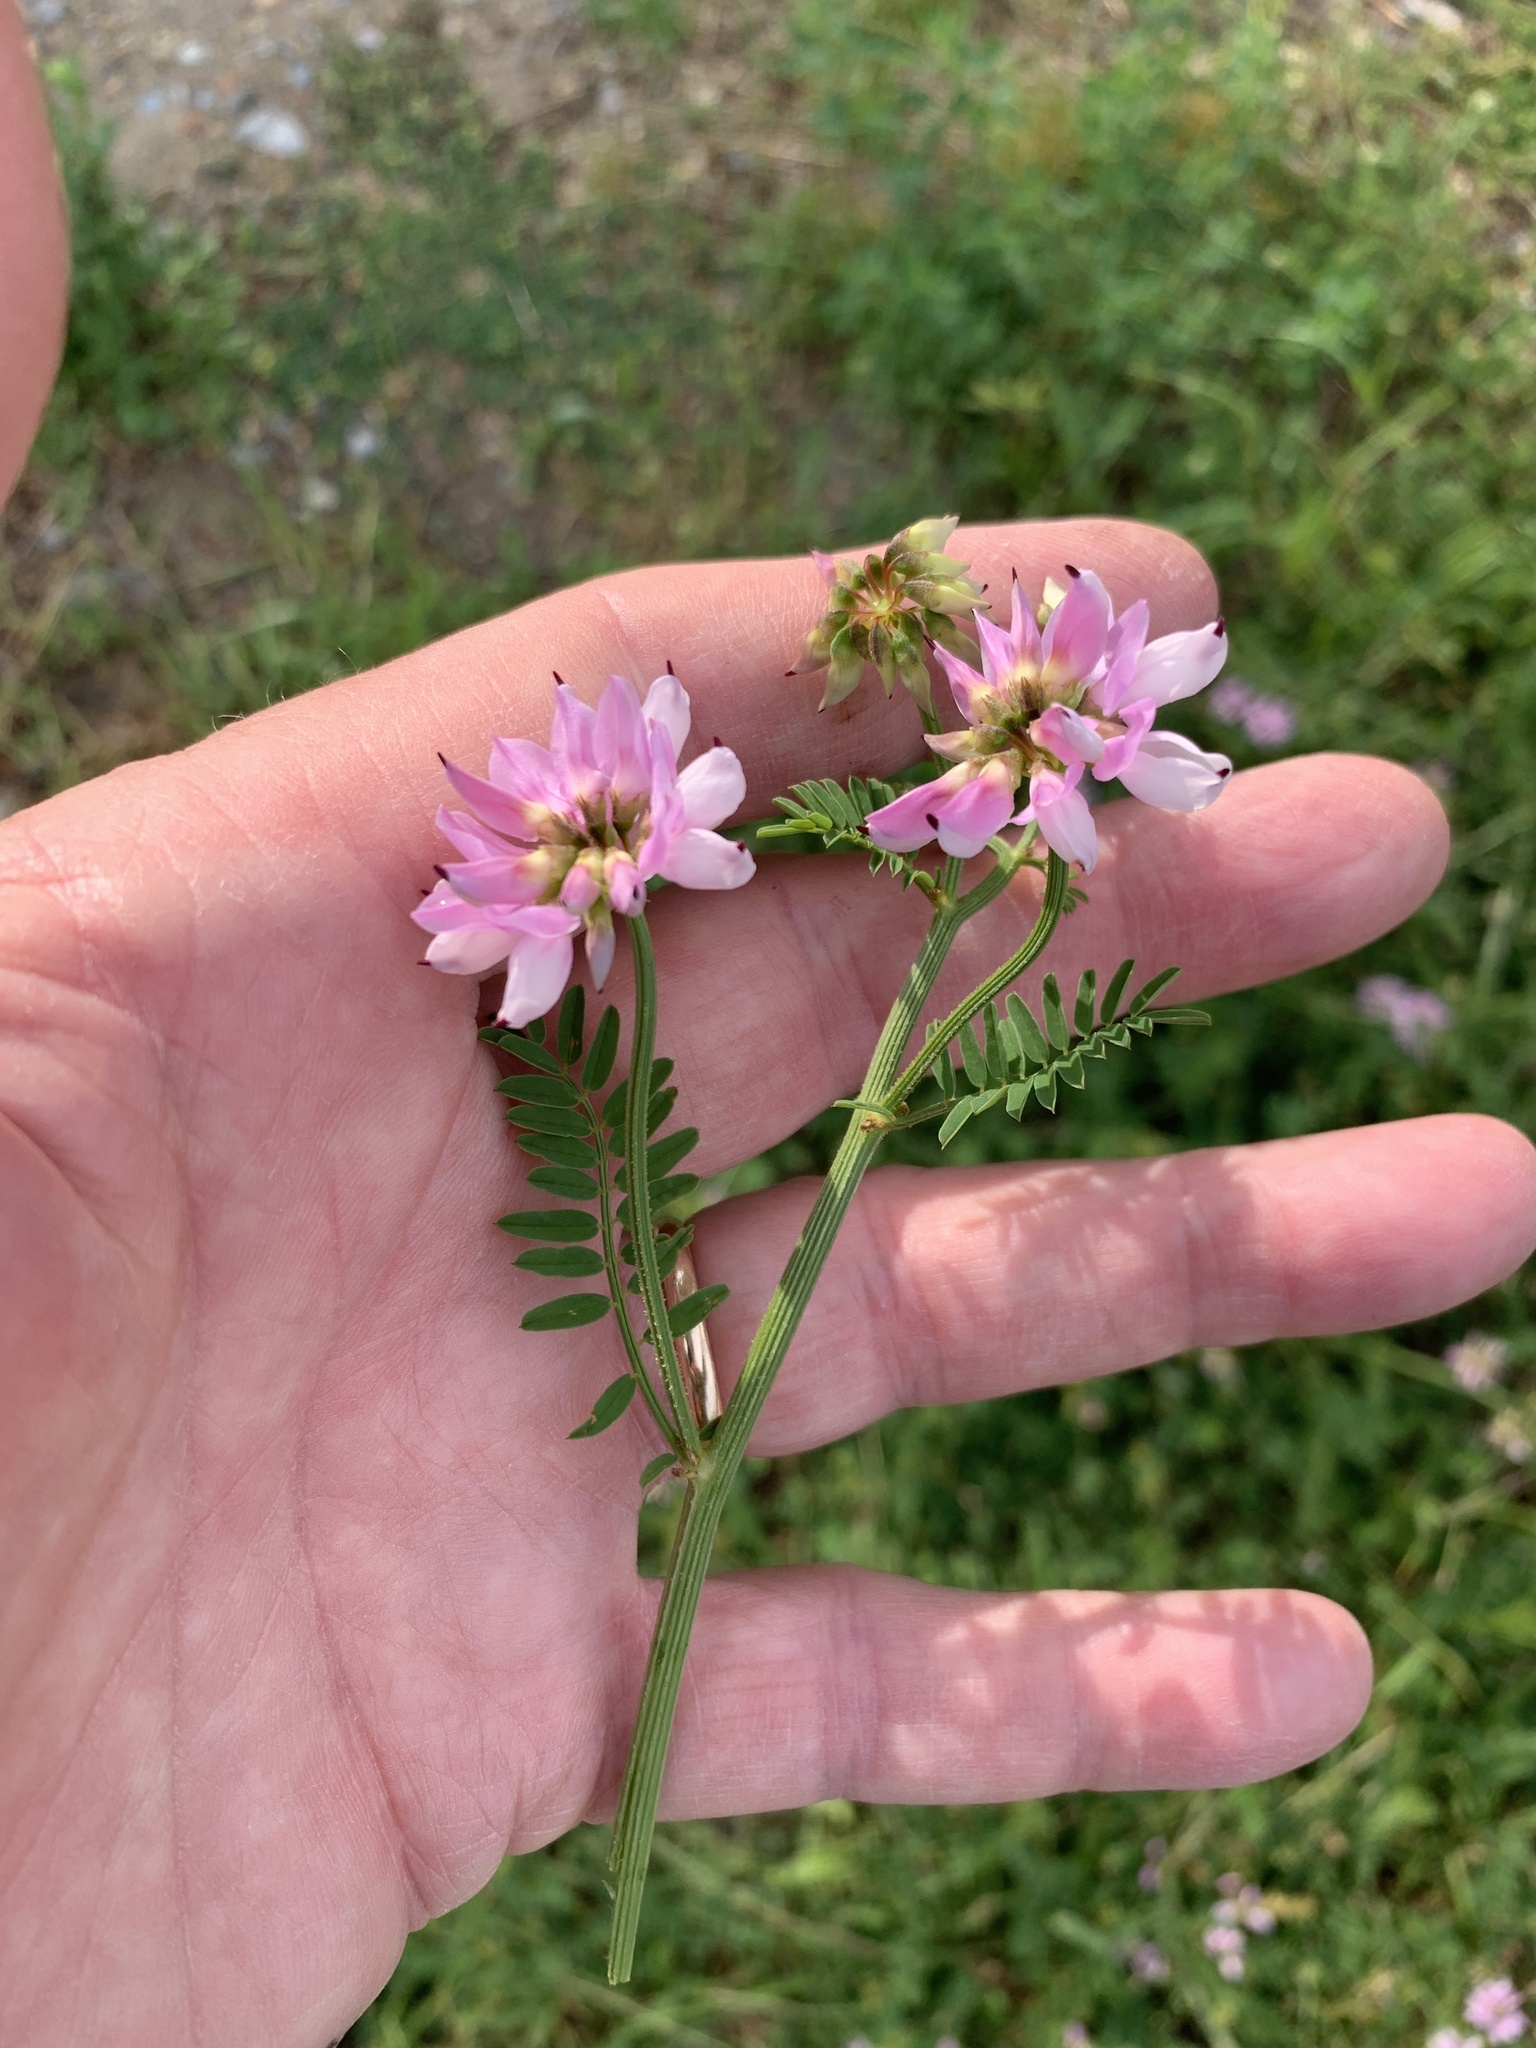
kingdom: Plantae
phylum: Tracheophyta
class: Magnoliopsida
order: Fabales
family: Fabaceae
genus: Coronilla
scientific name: Coronilla varia
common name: Crownvetch
